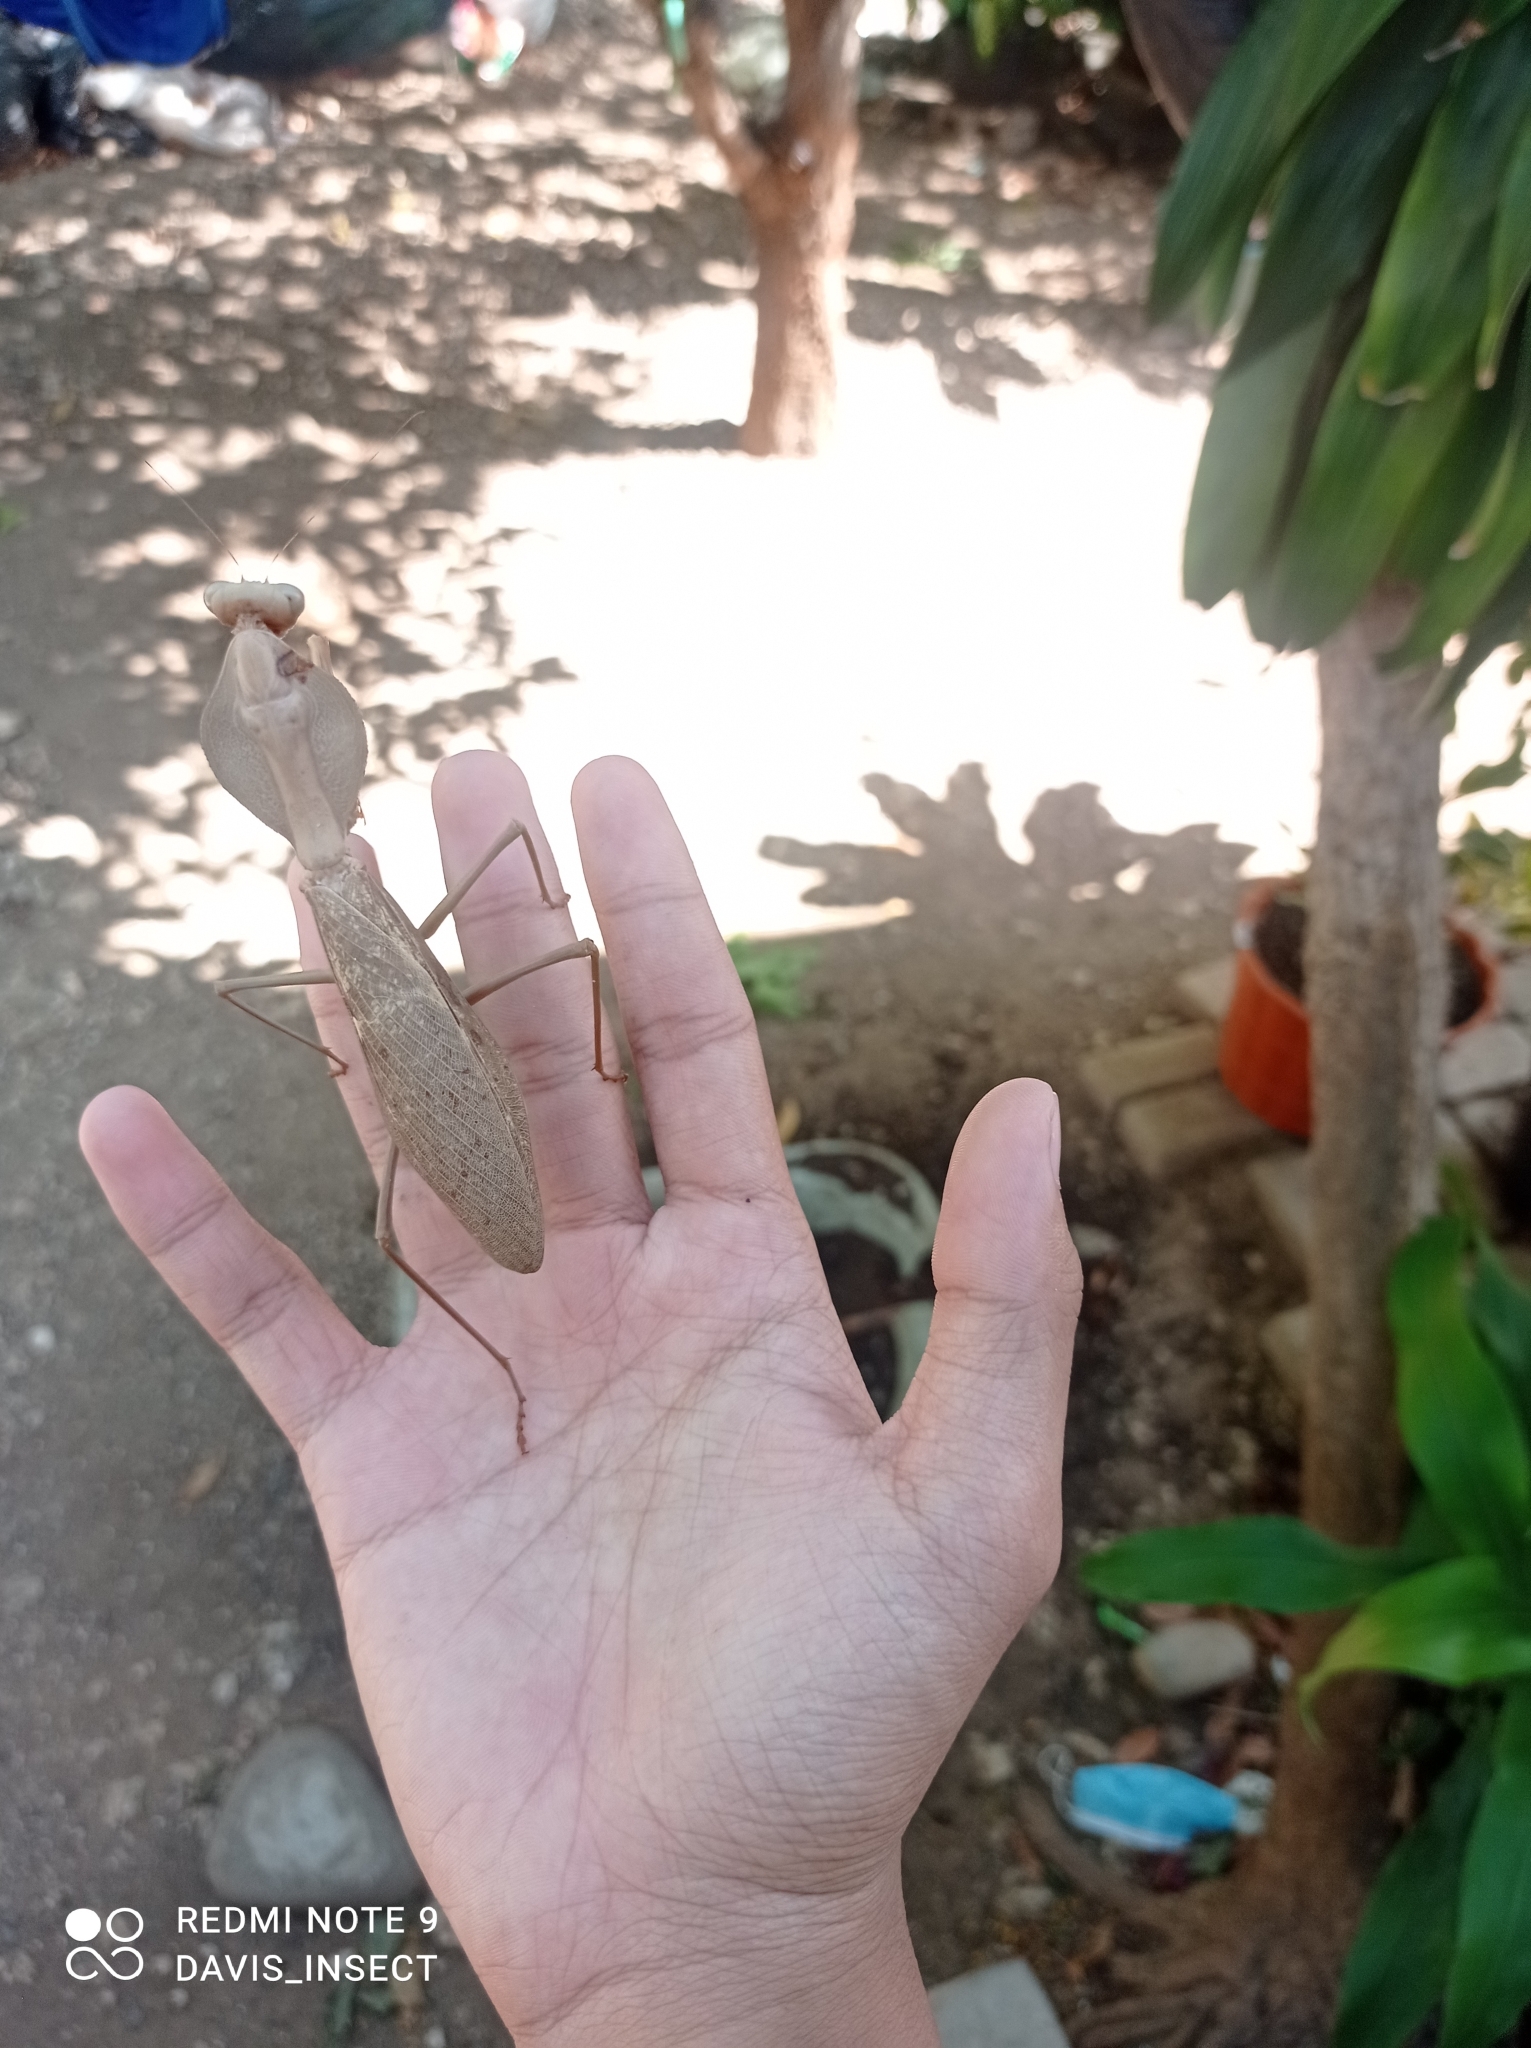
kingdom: Animalia
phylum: Arthropoda
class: Insecta
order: Mantodea
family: Mantidae
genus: Rhombodera
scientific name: Rhombodera kirbyi
